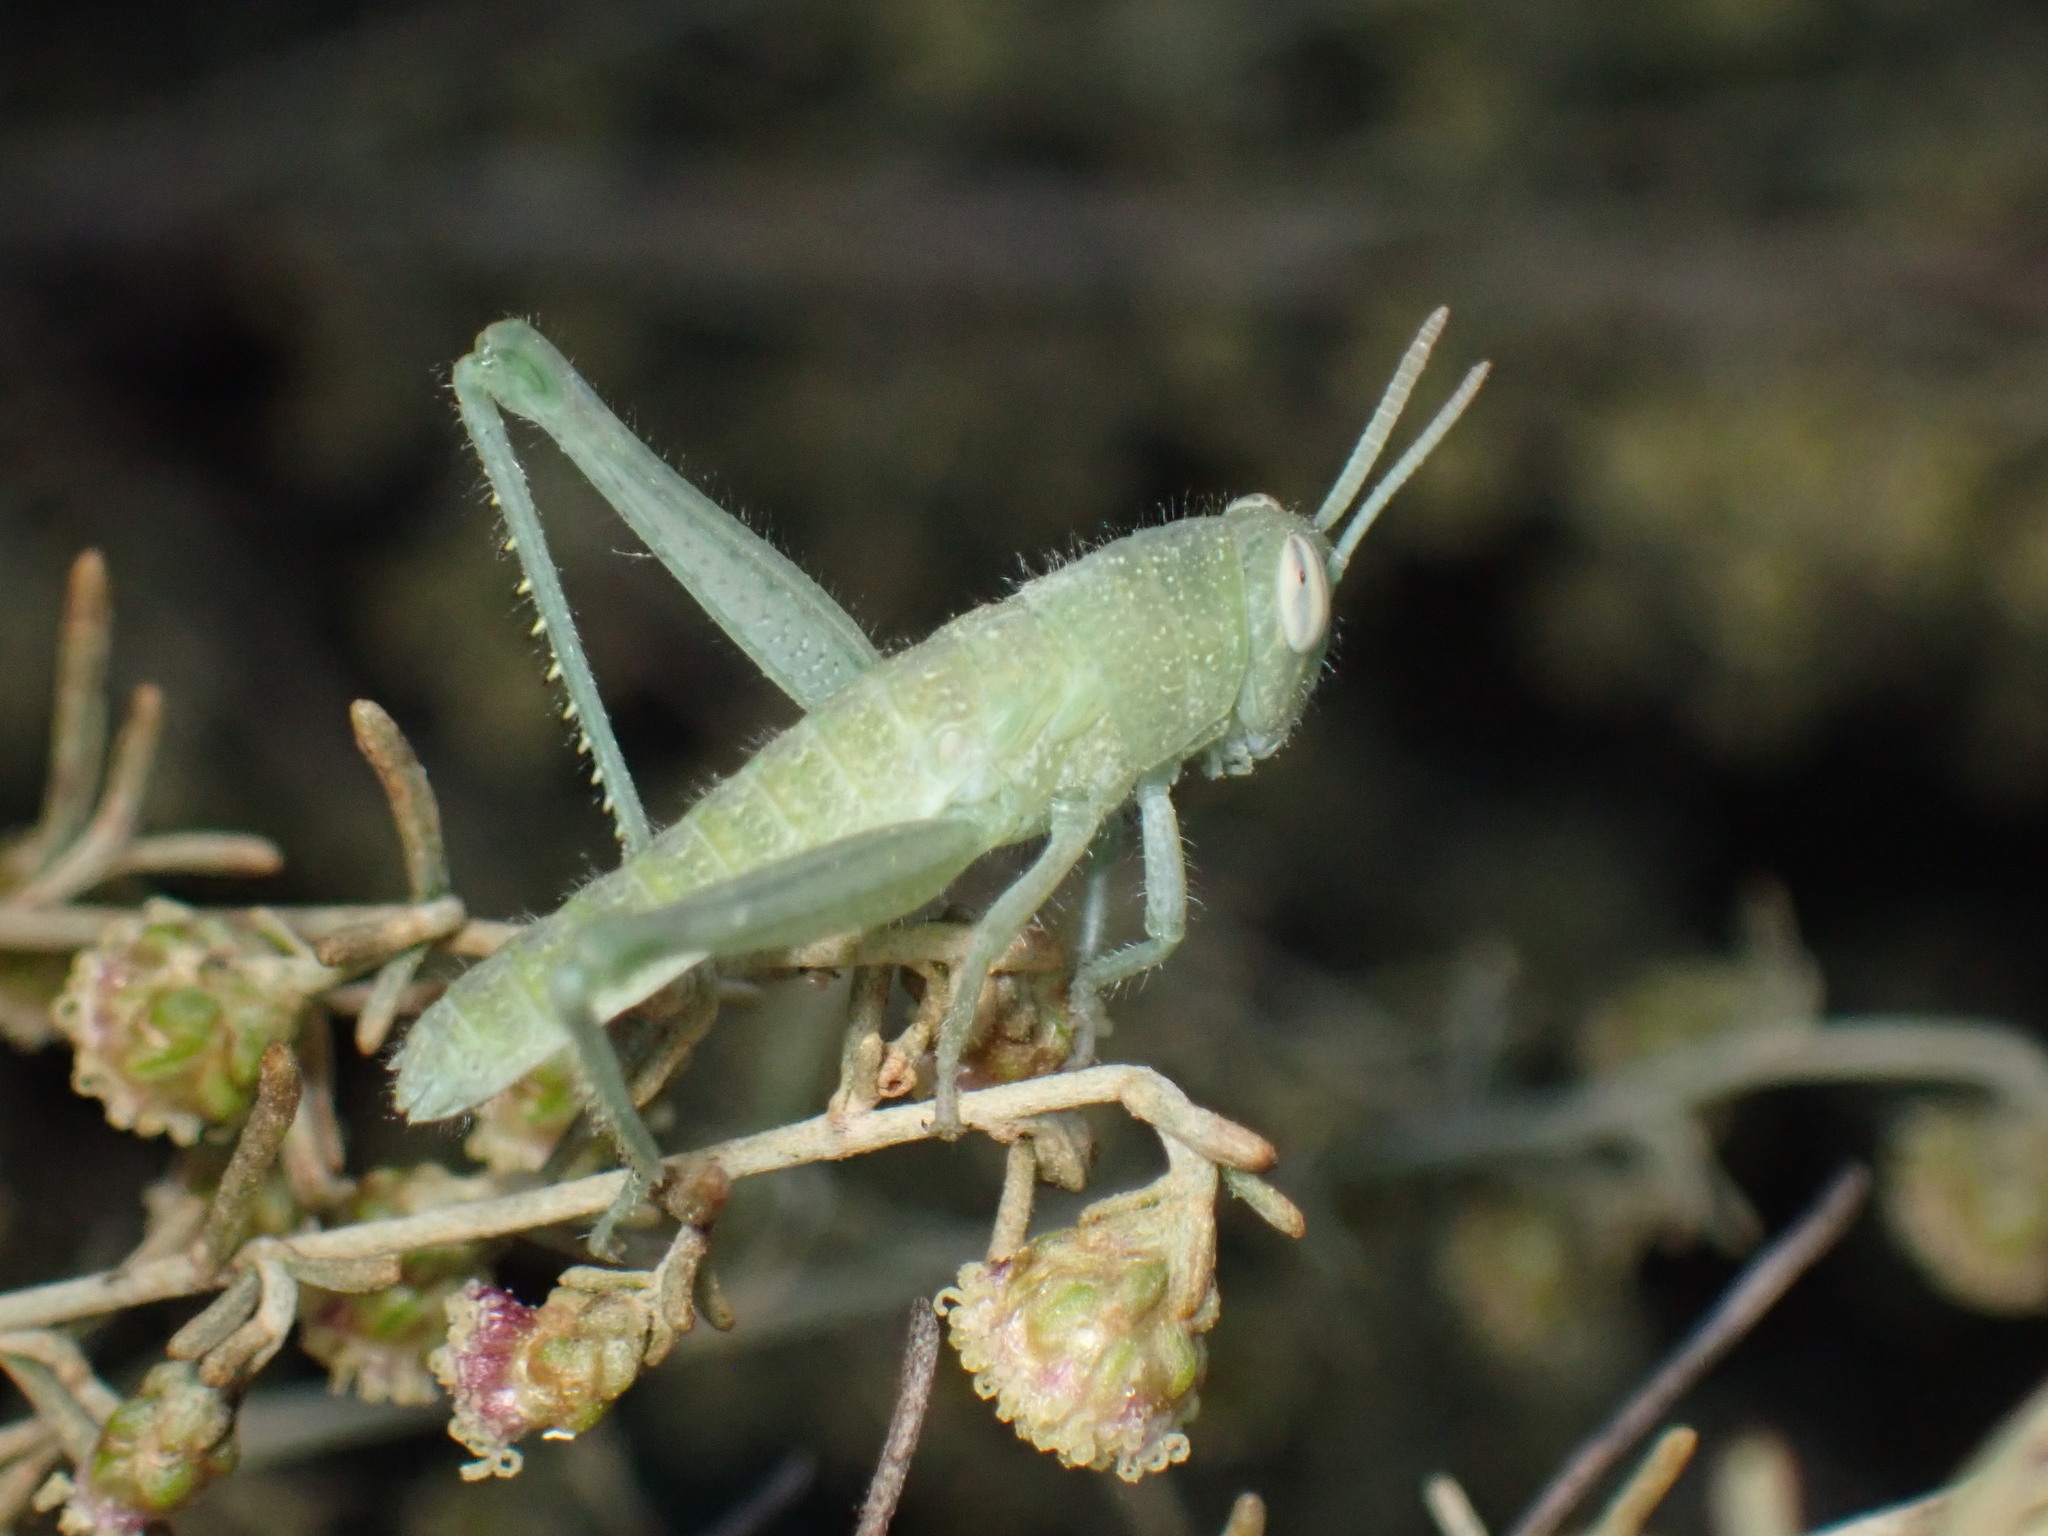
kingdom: Animalia
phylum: Arthropoda
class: Insecta
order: Orthoptera
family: Acrididae
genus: Schistocerca
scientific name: Schistocerca nitens
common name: Vagrant grasshopper
